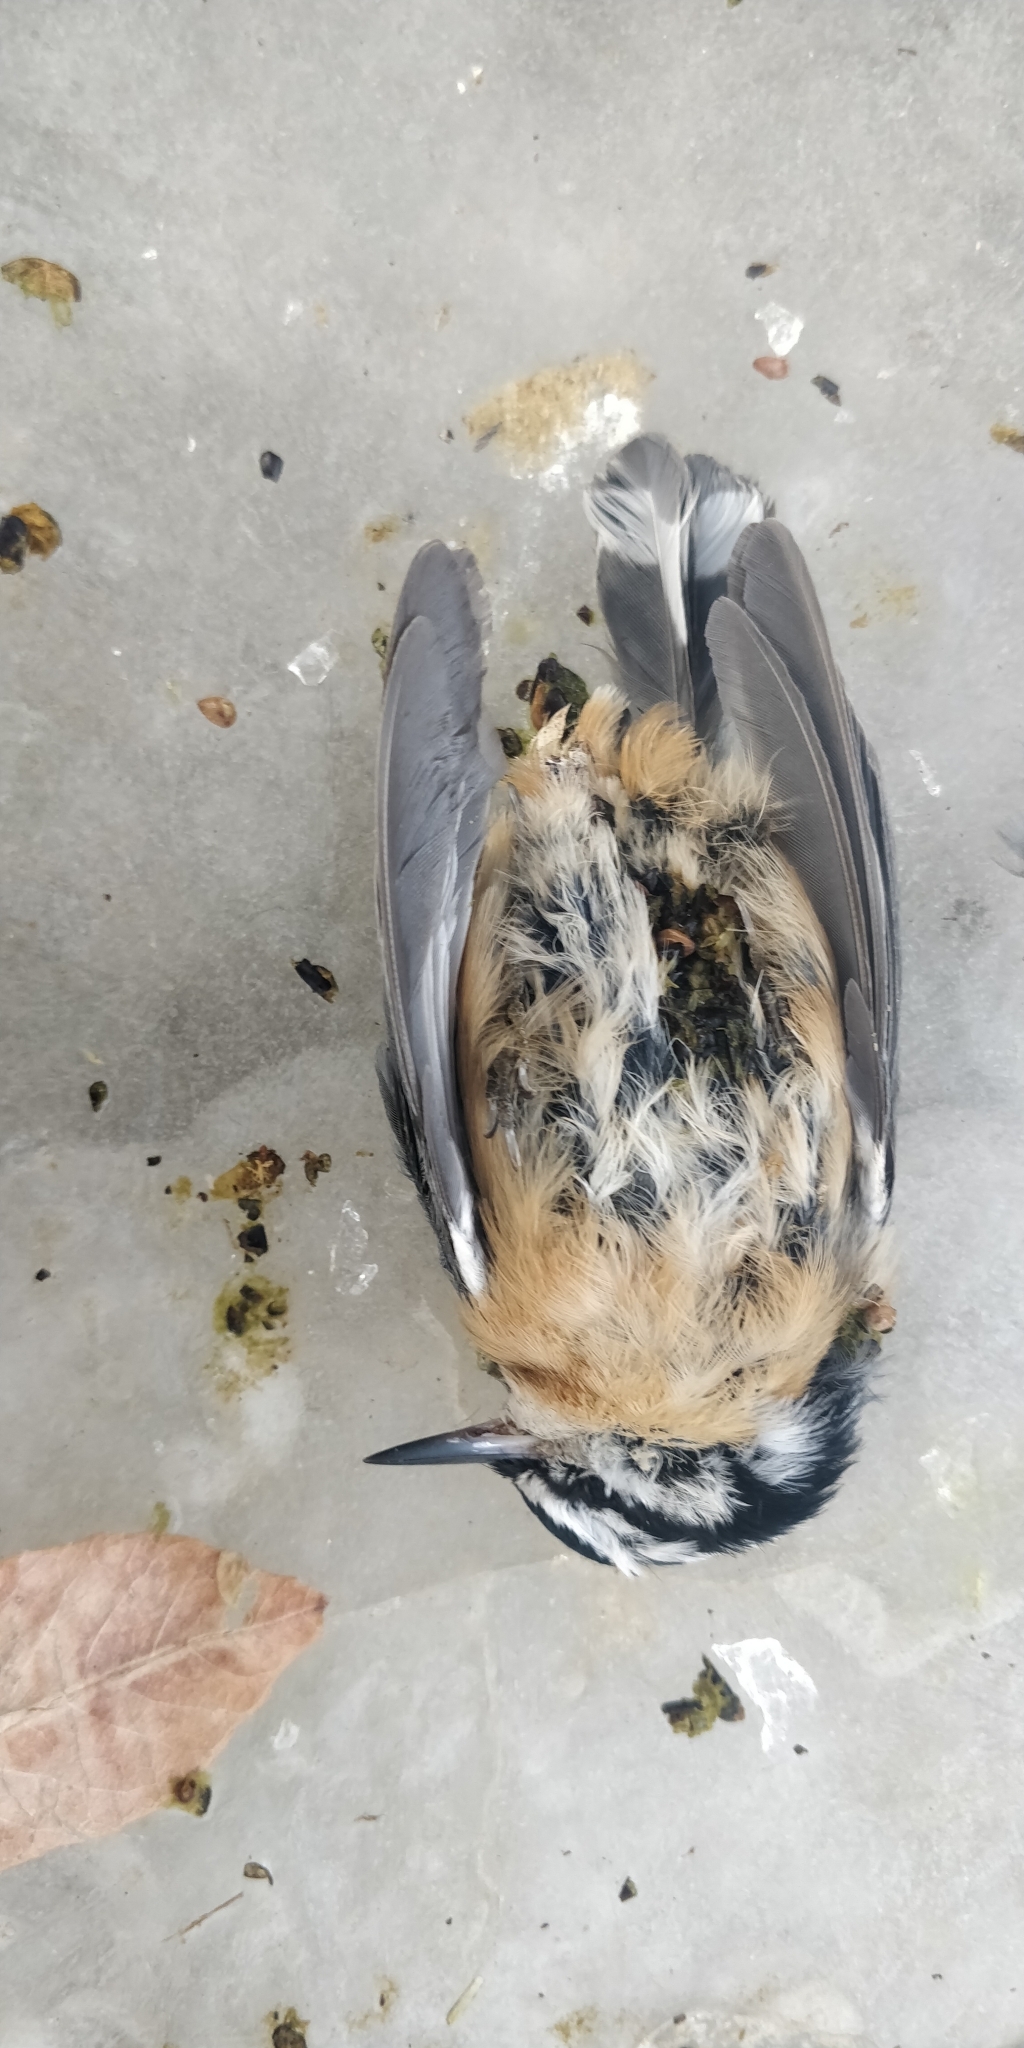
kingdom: Animalia
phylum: Chordata
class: Aves
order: Passeriformes
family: Sittidae
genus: Sitta
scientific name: Sitta canadensis
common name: Red-breasted nuthatch
